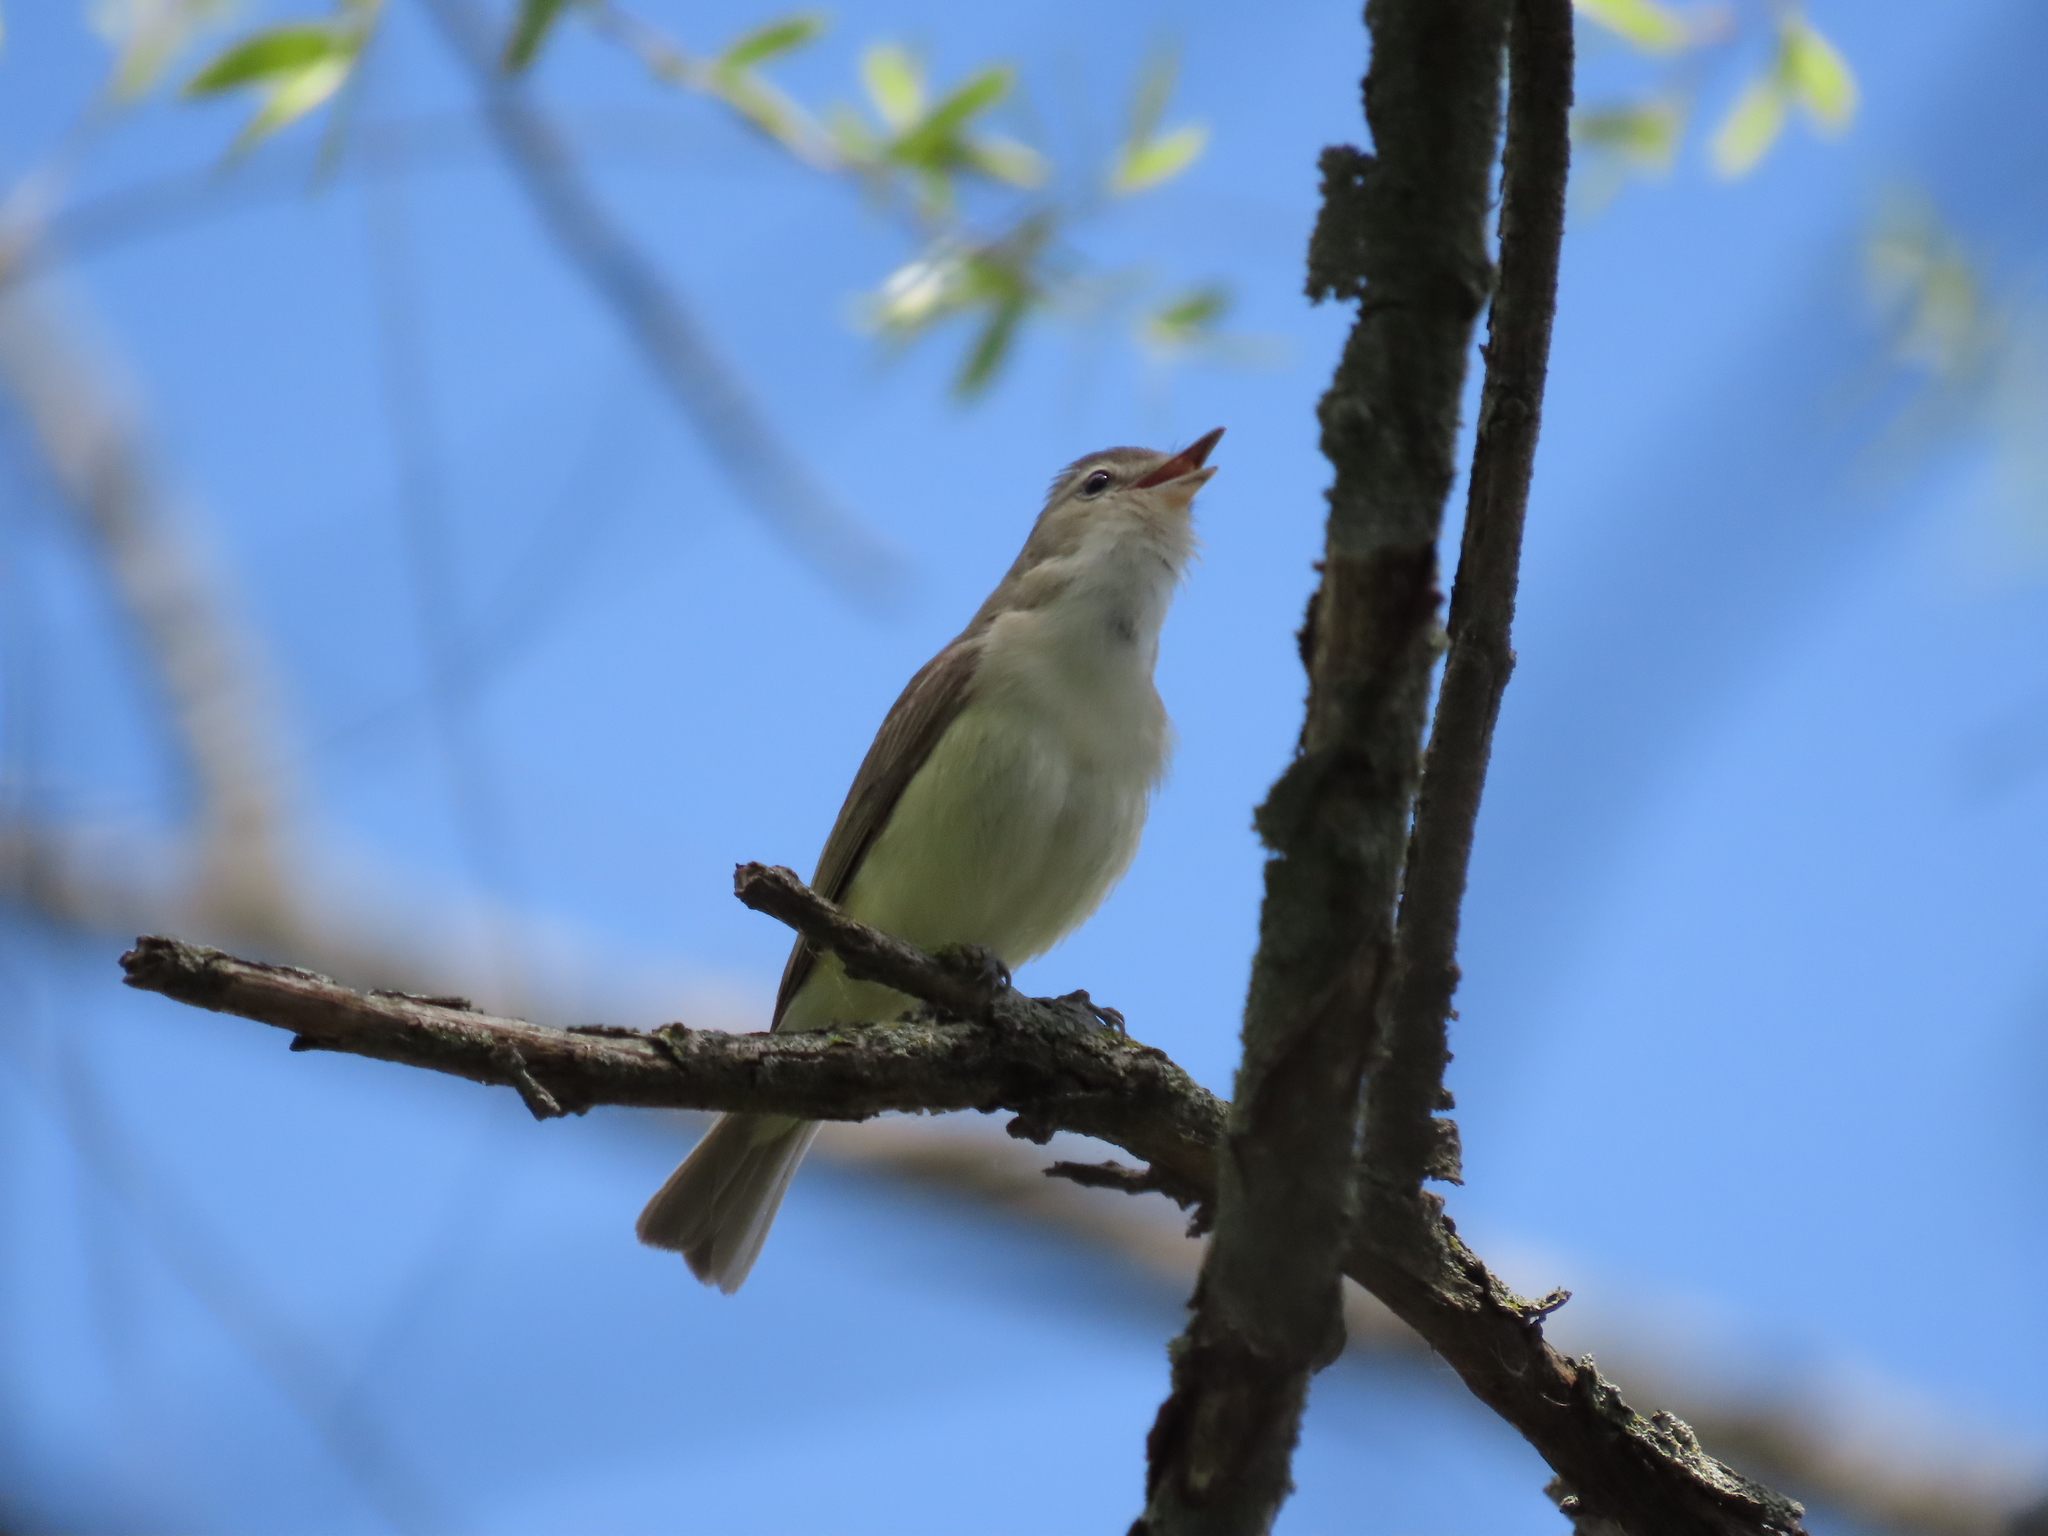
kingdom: Animalia
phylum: Chordata
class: Aves
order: Passeriformes
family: Vireonidae
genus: Vireo
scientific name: Vireo gilvus
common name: Warbling vireo
